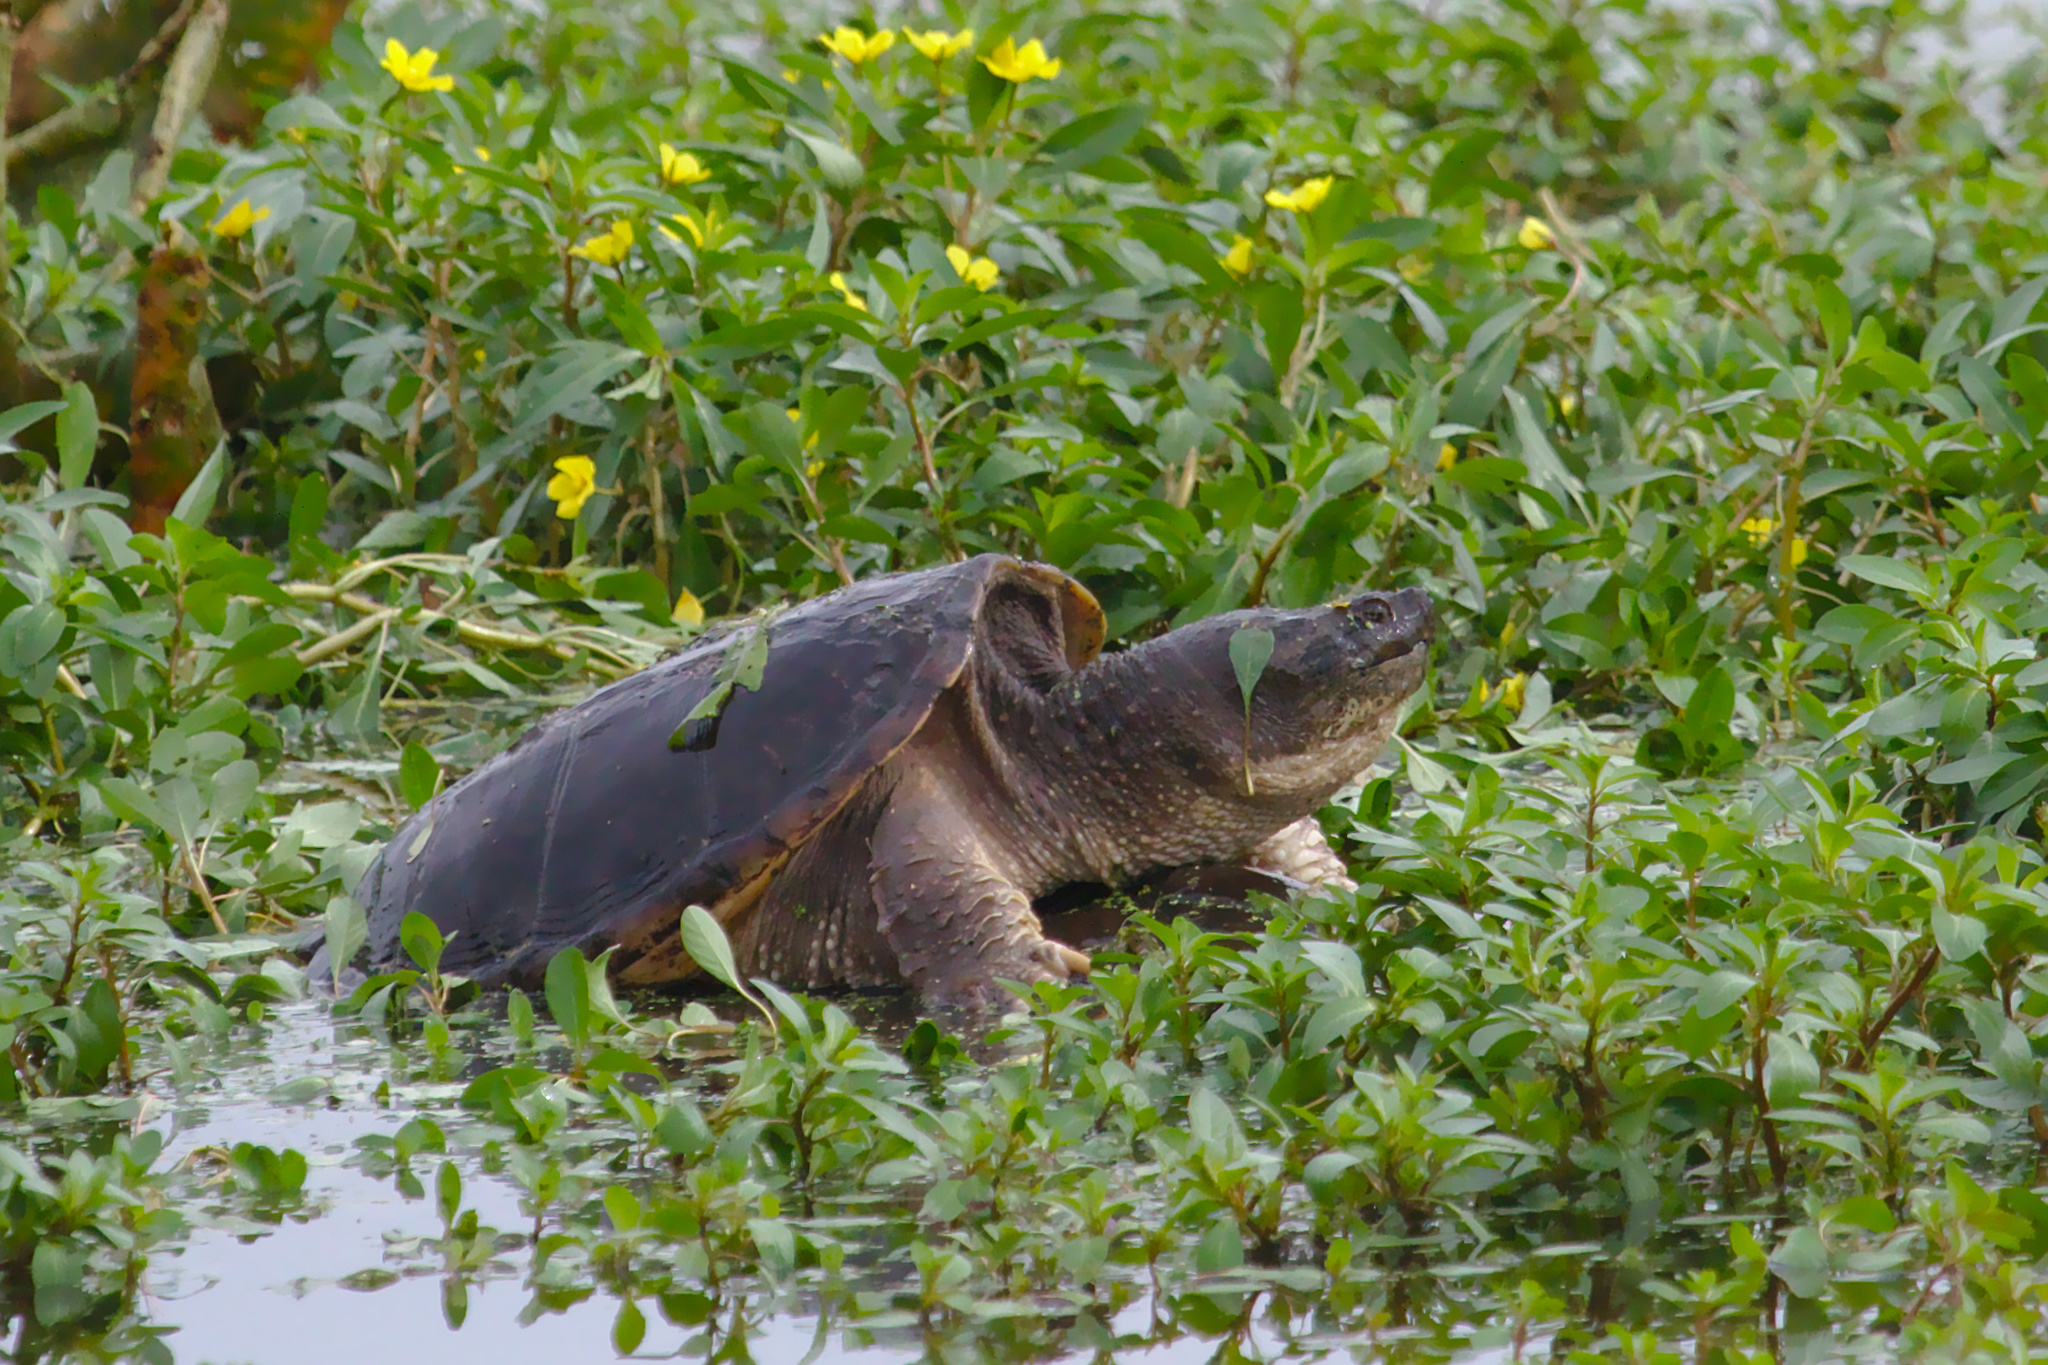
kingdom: Animalia
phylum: Chordata
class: Testudines
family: Chelydridae
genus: Chelydra
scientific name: Chelydra serpentina
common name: Common snapping turtle
